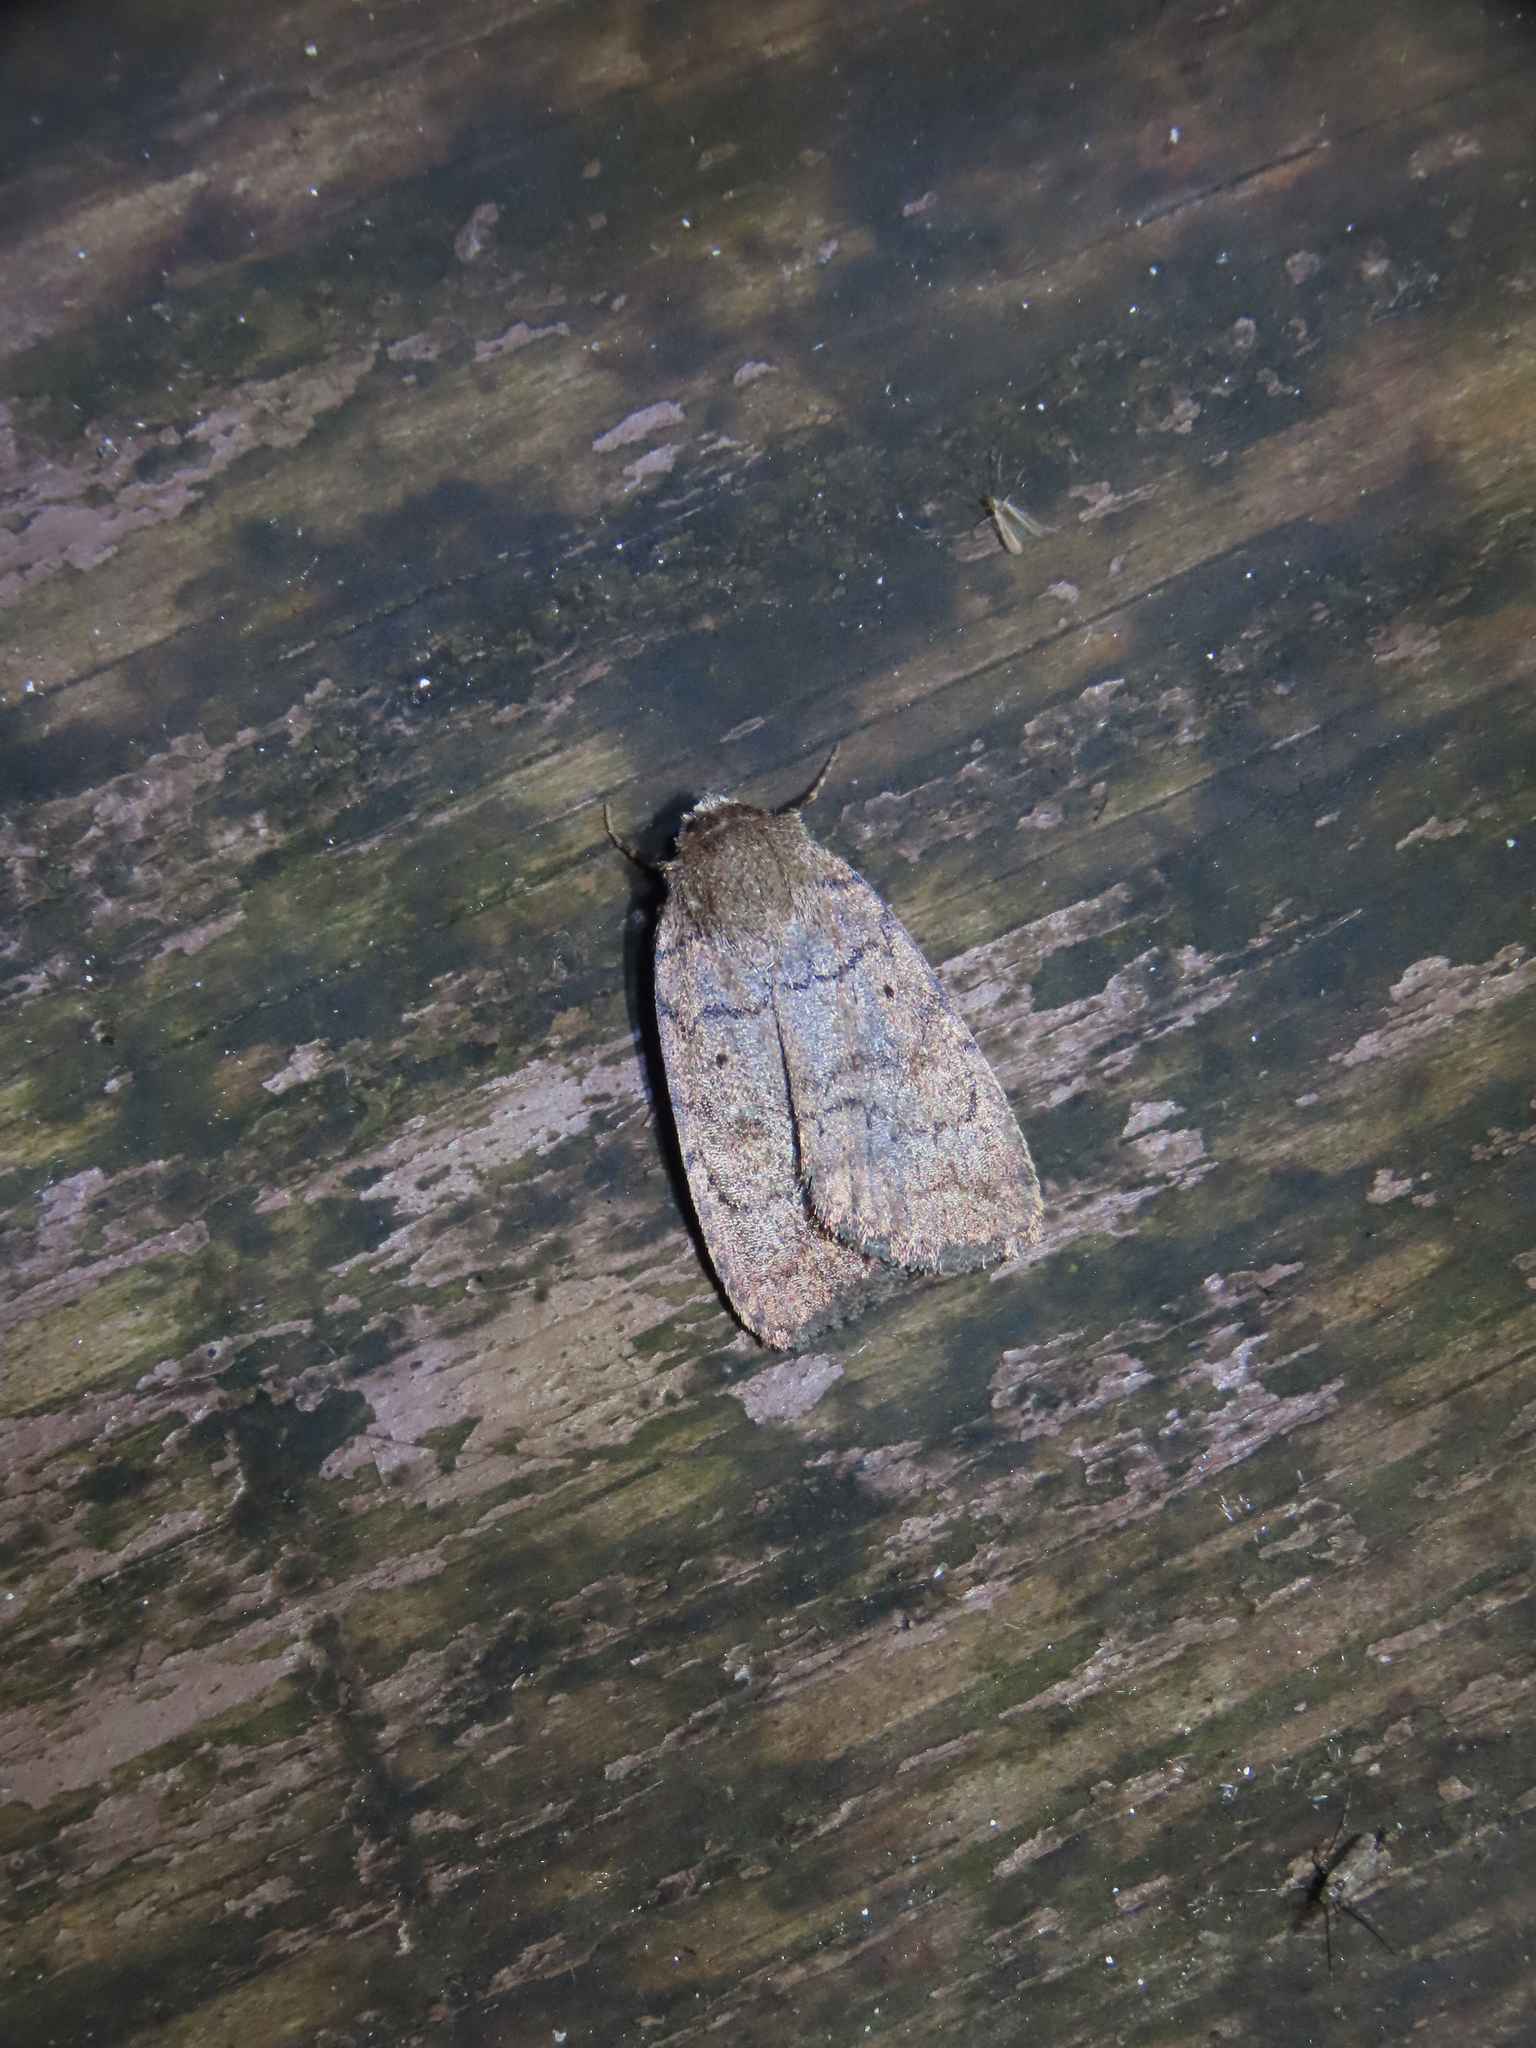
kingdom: Animalia
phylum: Arthropoda
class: Insecta
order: Lepidoptera
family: Noctuidae
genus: Athetis
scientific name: Athetis tarda
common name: Slowpoke moth
